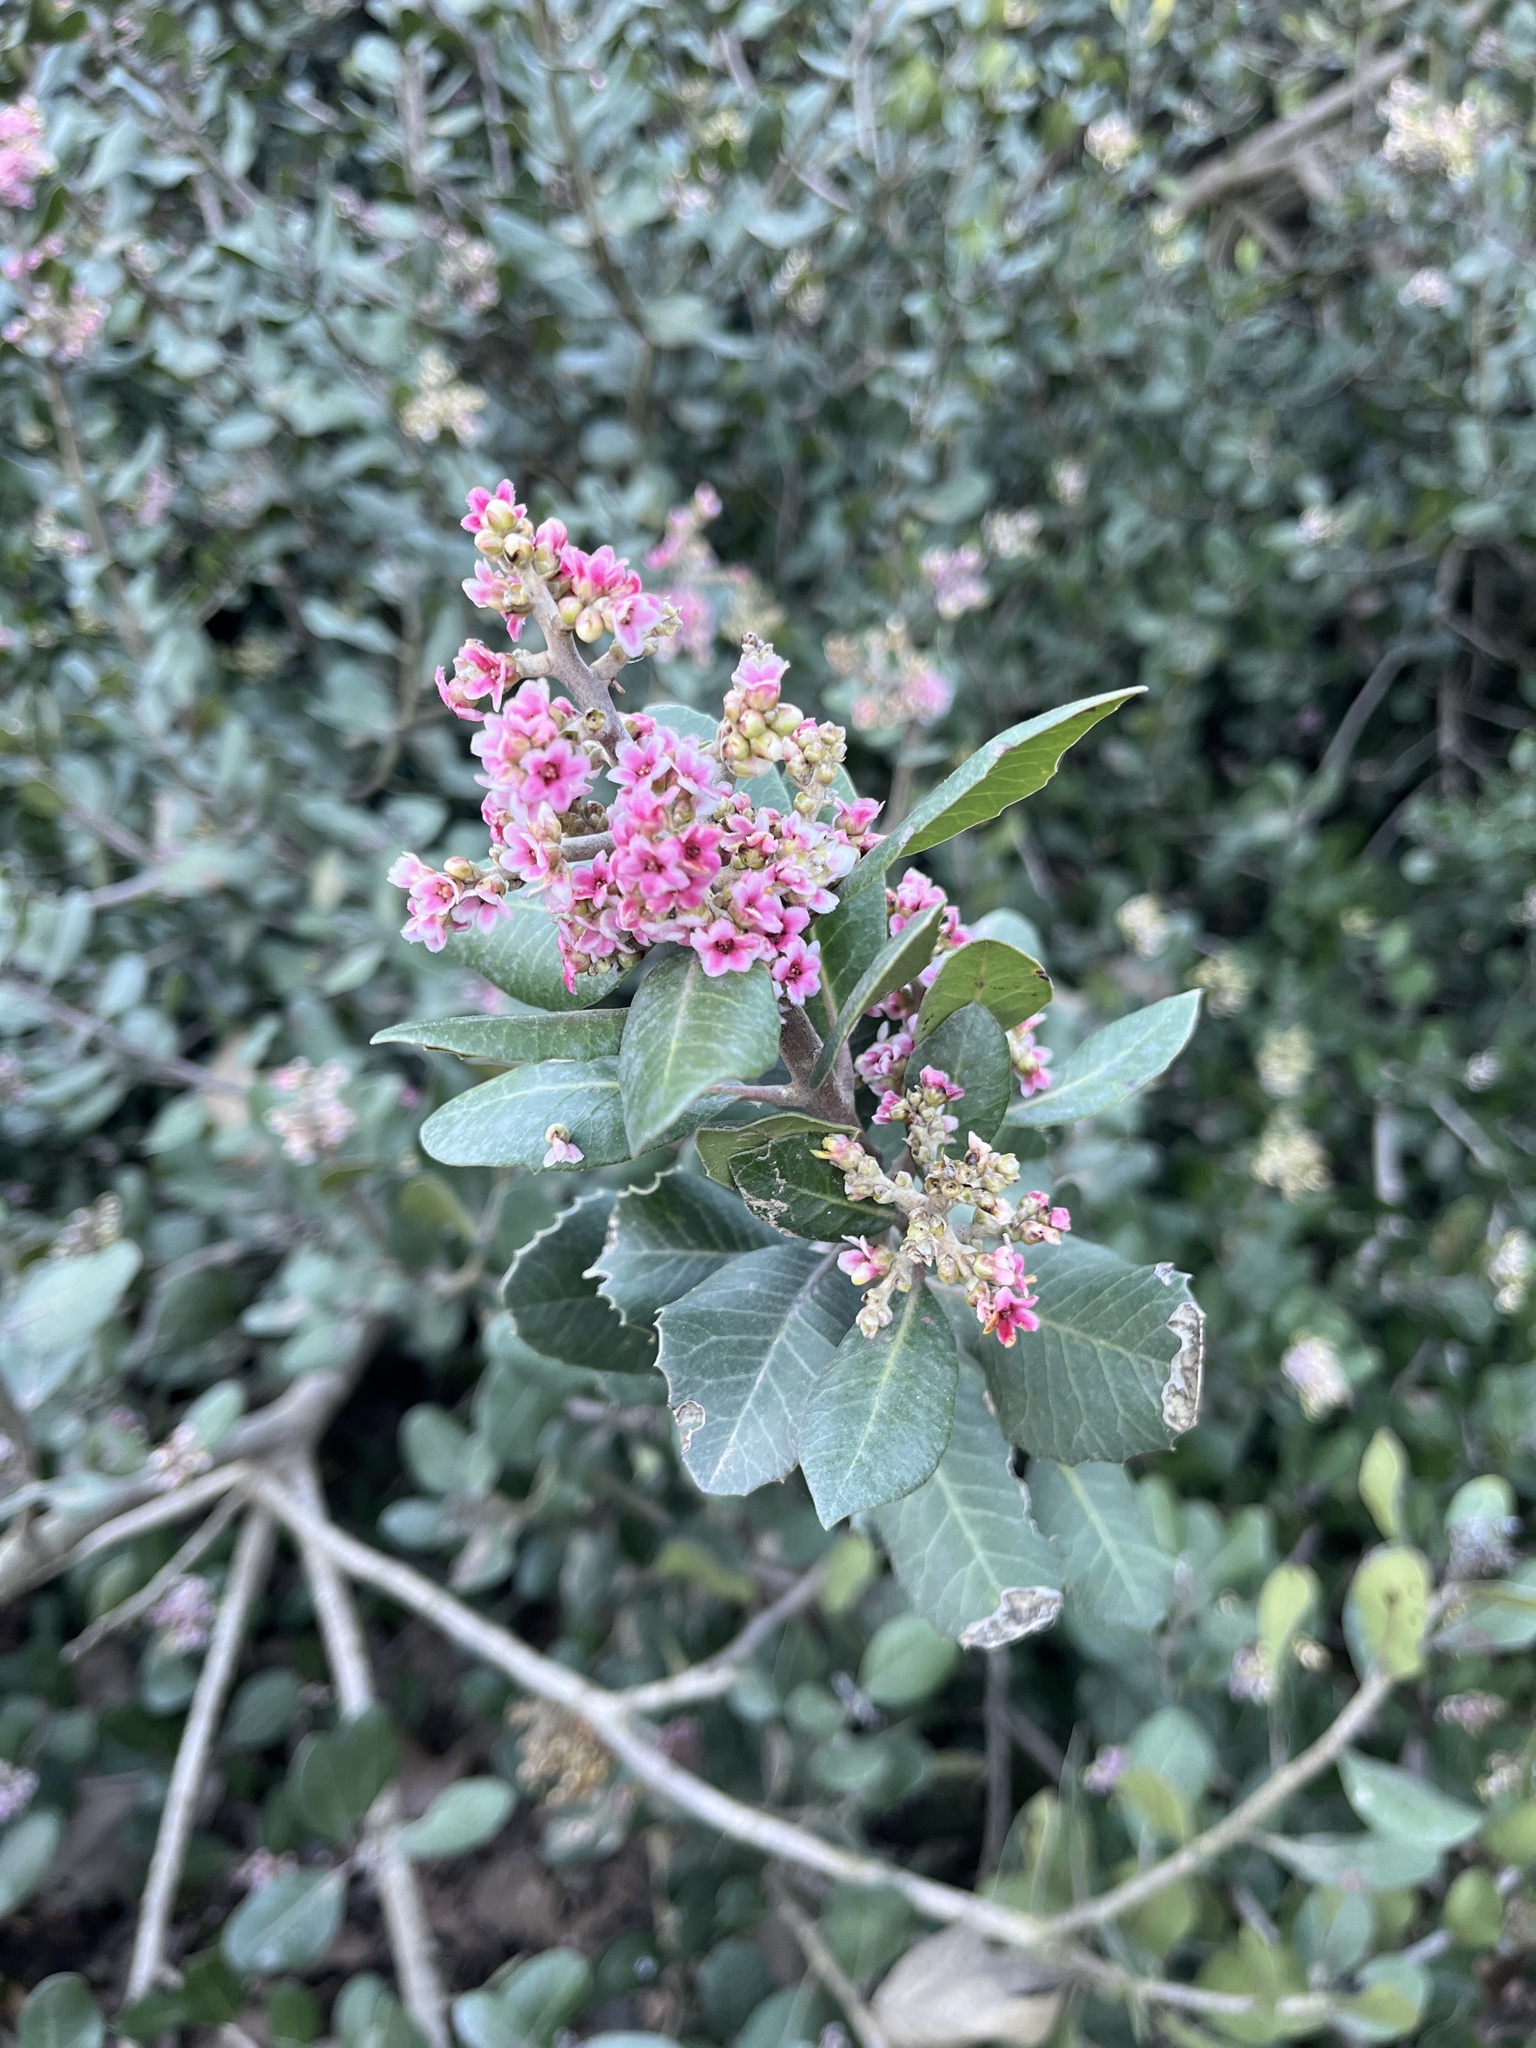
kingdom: Plantae
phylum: Tracheophyta
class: Magnoliopsida
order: Sapindales
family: Anacardiaceae
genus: Rhus
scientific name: Rhus integrifolia
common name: Lemonade sumac
